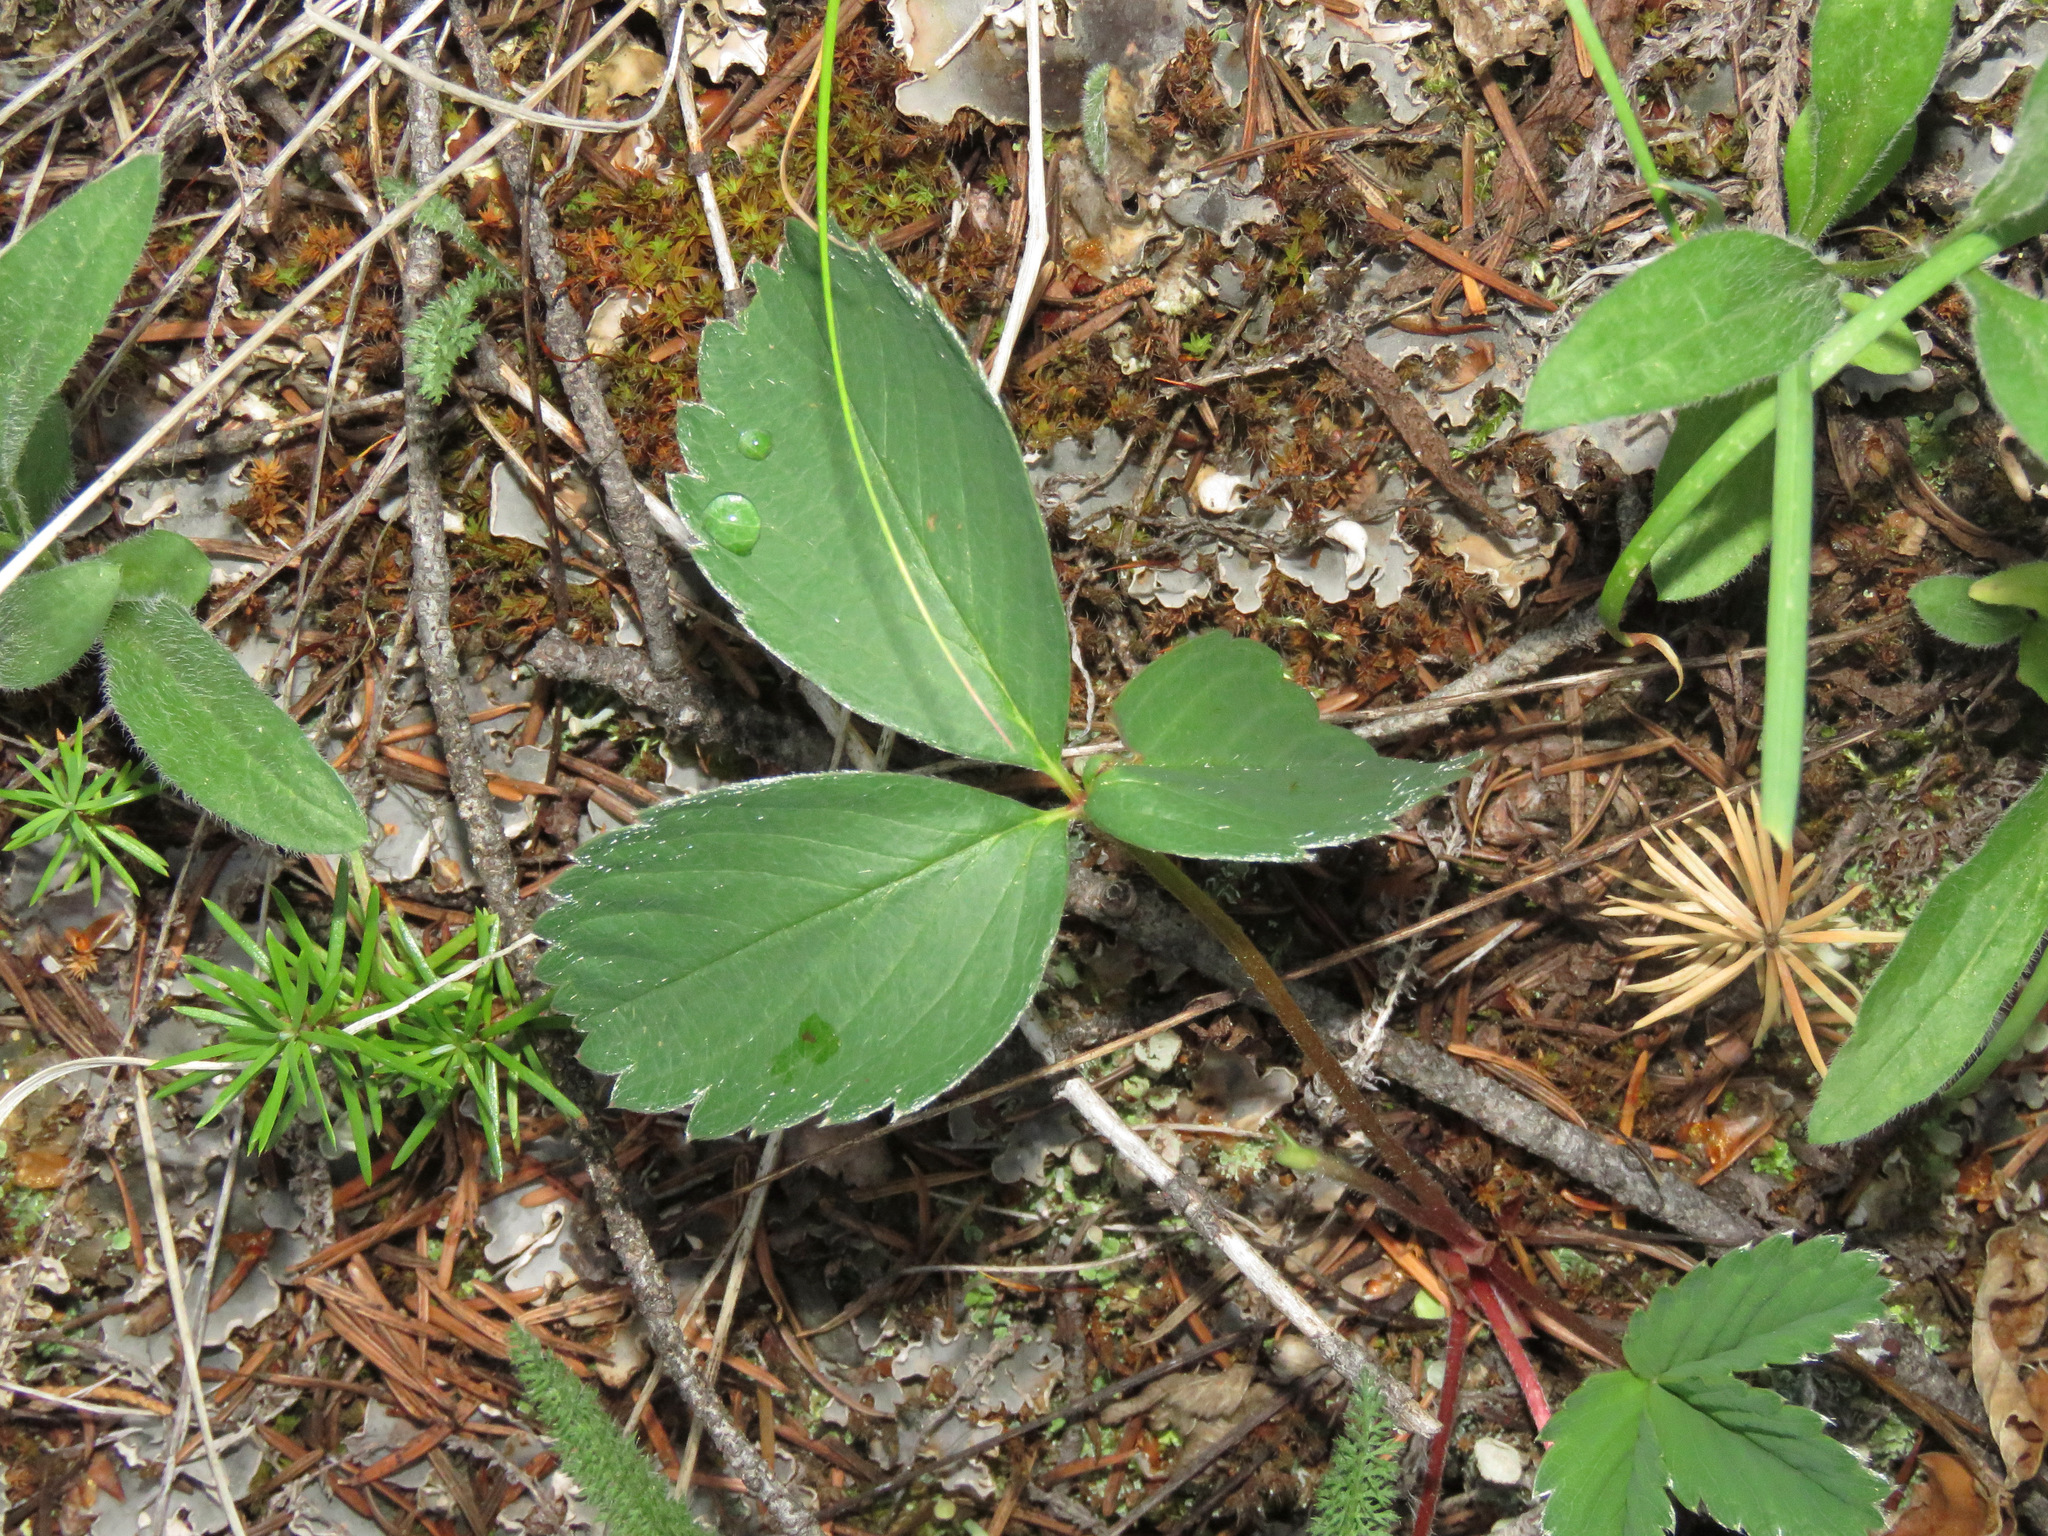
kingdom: Plantae
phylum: Tracheophyta
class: Magnoliopsida
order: Rosales
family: Rosaceae
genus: Fragaria
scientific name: Fragaria virginiana
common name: Thickleaved wild strawberry
